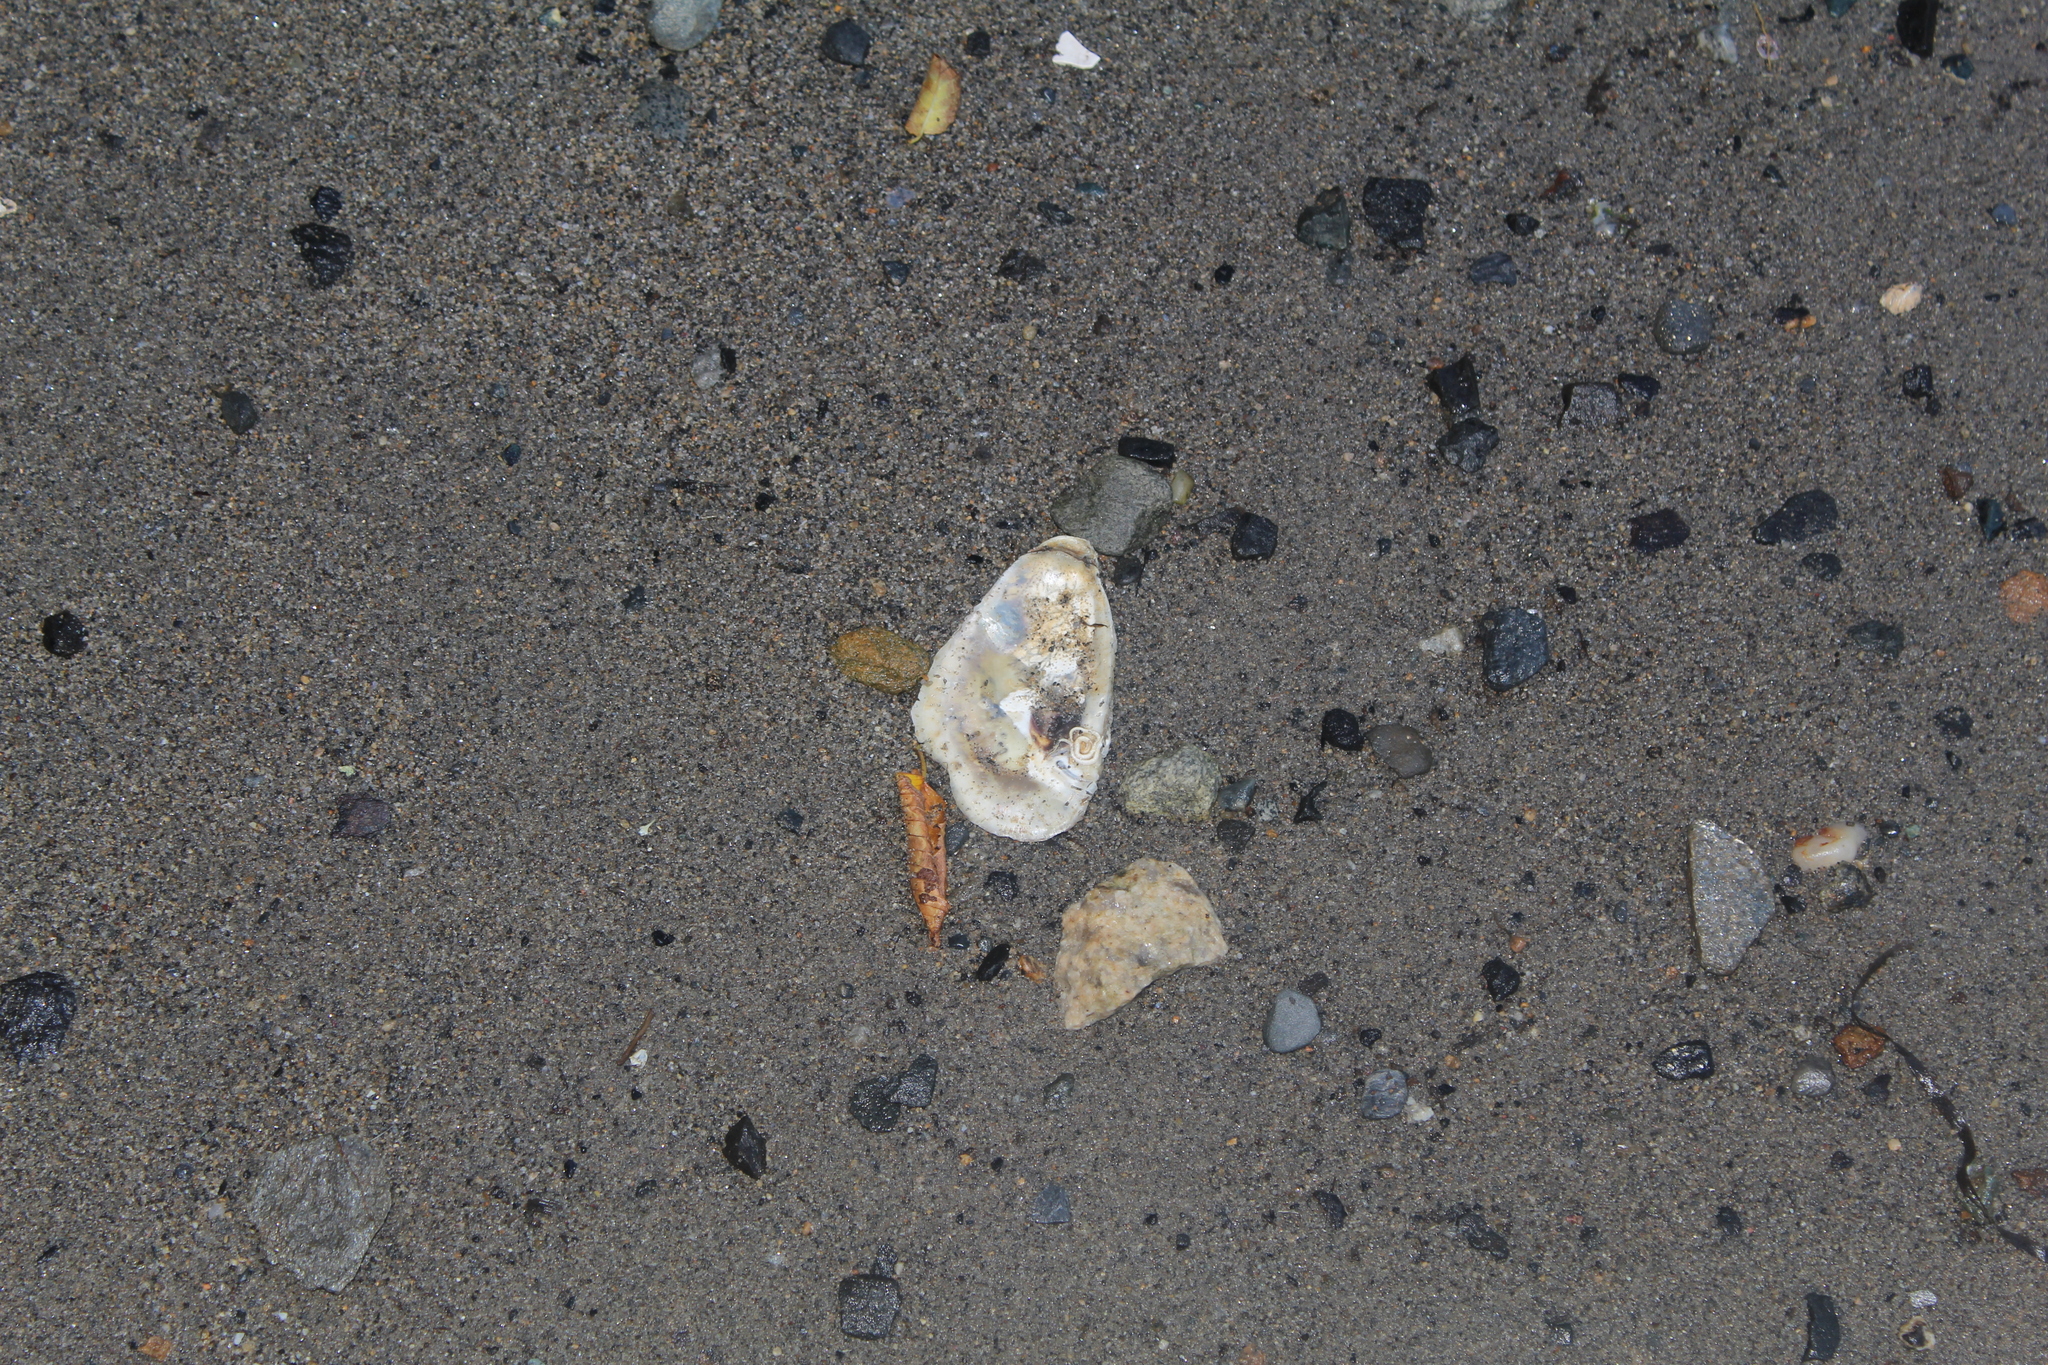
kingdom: Animalia
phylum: Mollusca
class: Bivalvia
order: Ostreida
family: Ostreidae
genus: Crassostrea
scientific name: Crassostrea virginica
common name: American oyster
